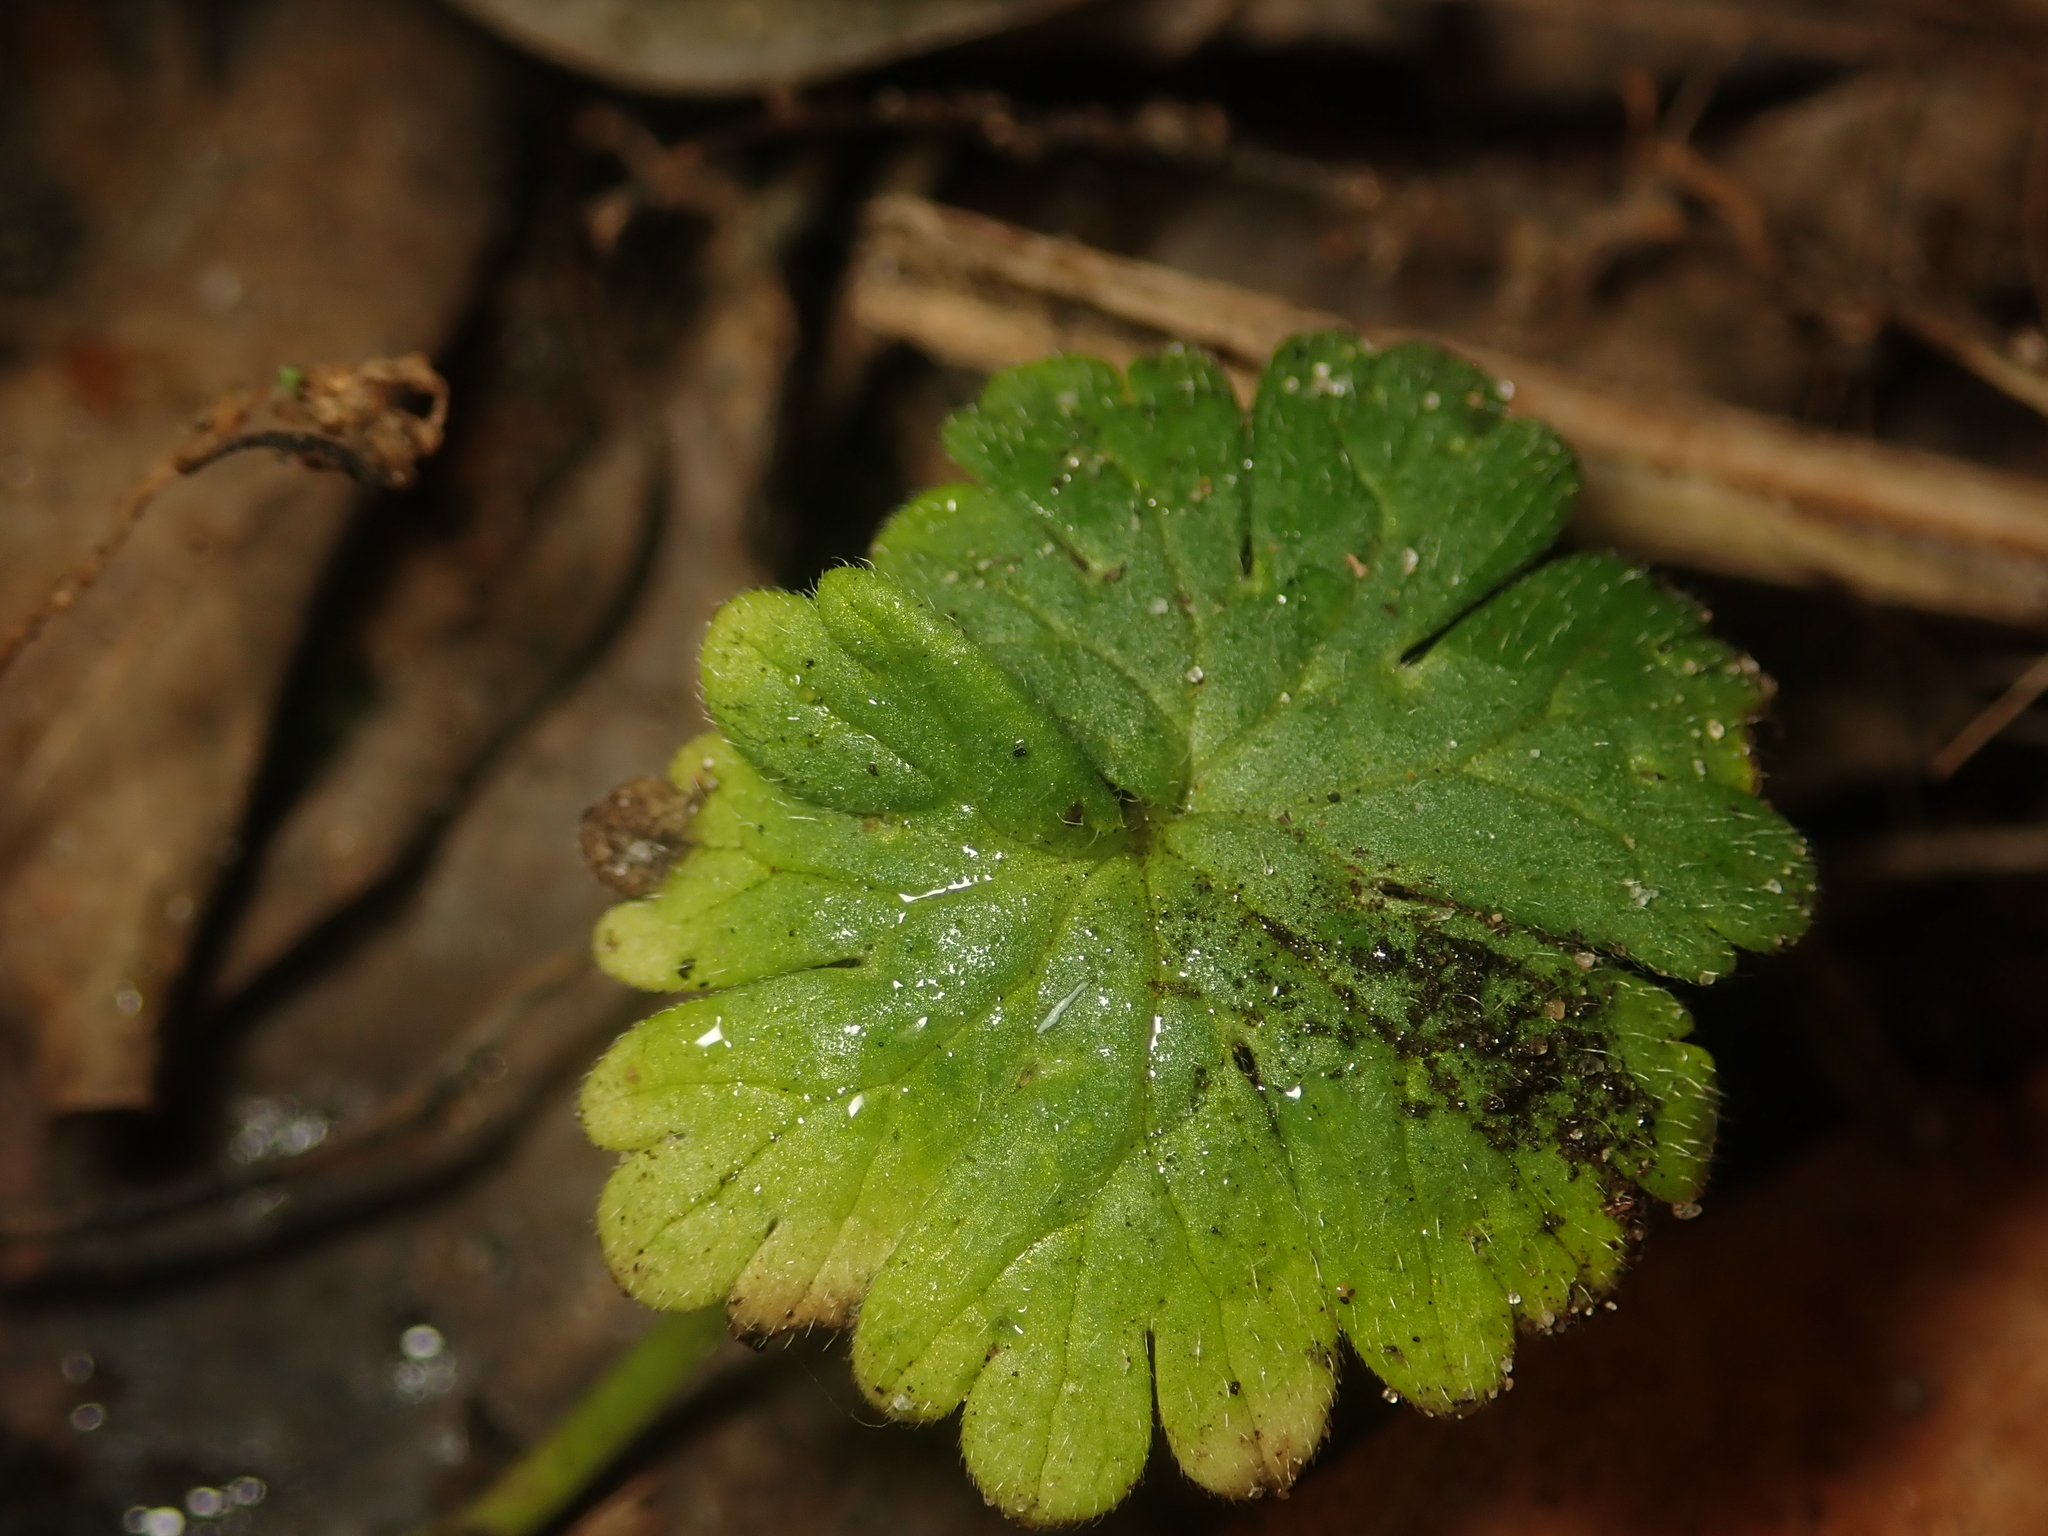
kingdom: Plantae
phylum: Tracheophyta
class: Magnoliopsida
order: Geraniales
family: Geraniaceae
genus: Geranium
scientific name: Geranium molle
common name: Dove's-foot crane's-bill
